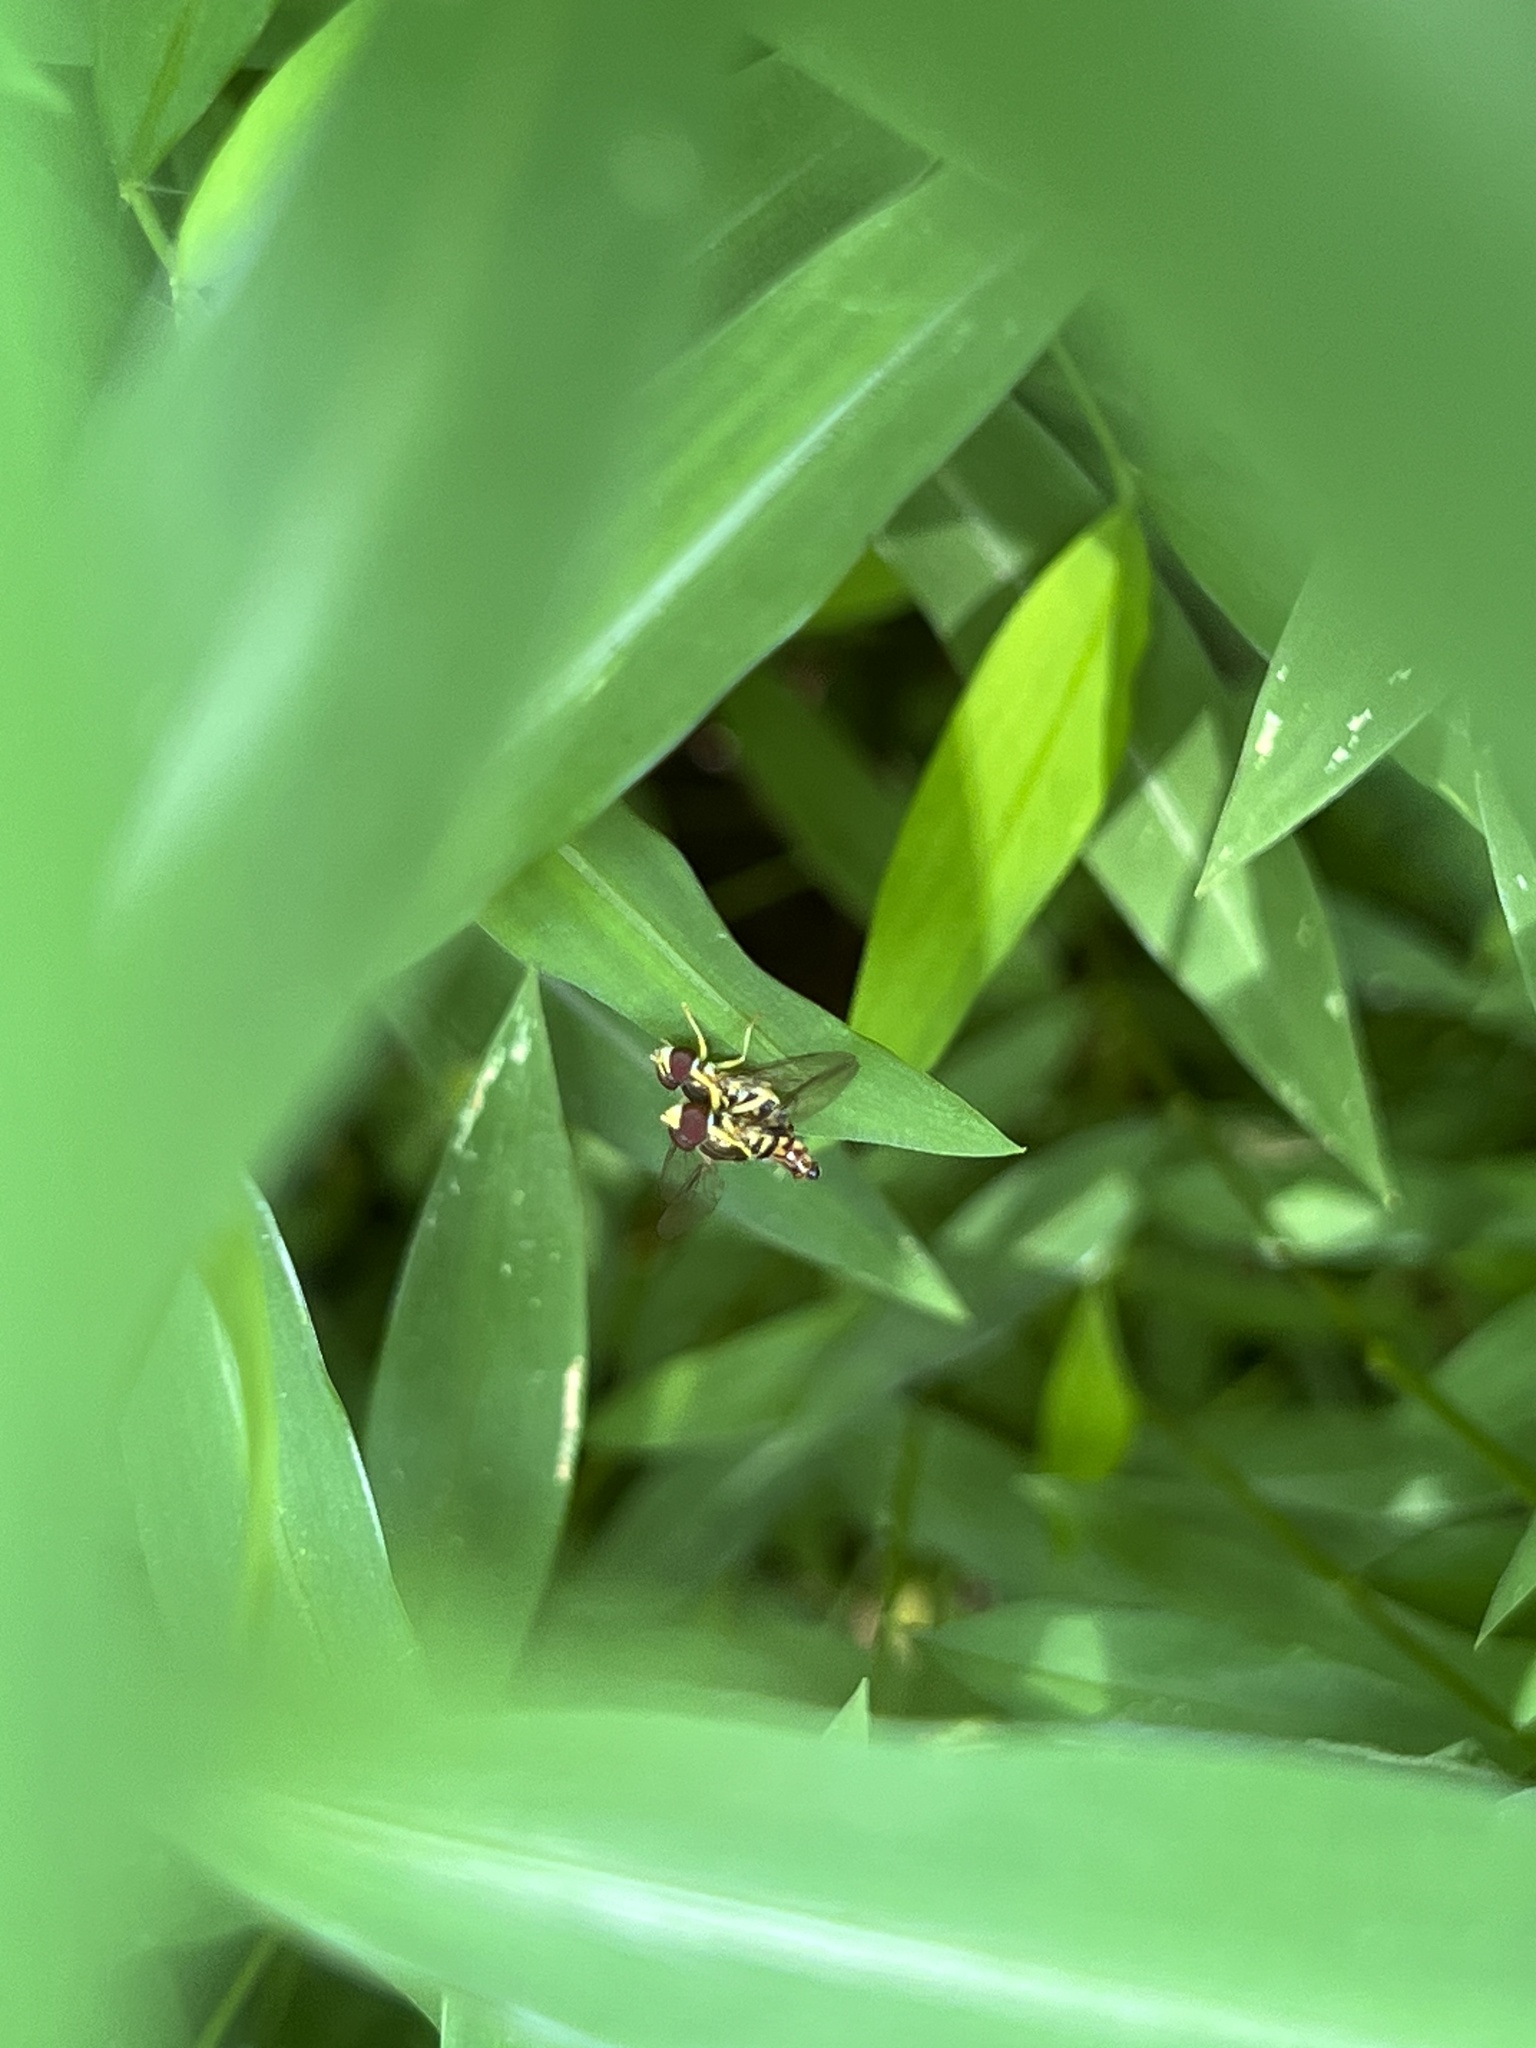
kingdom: Animalia
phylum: Arthropoda
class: Insecta
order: Diptera
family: Syrphidae
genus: Toxomerus
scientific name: Toxomerus geminatus
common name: Eastern calligrapher
